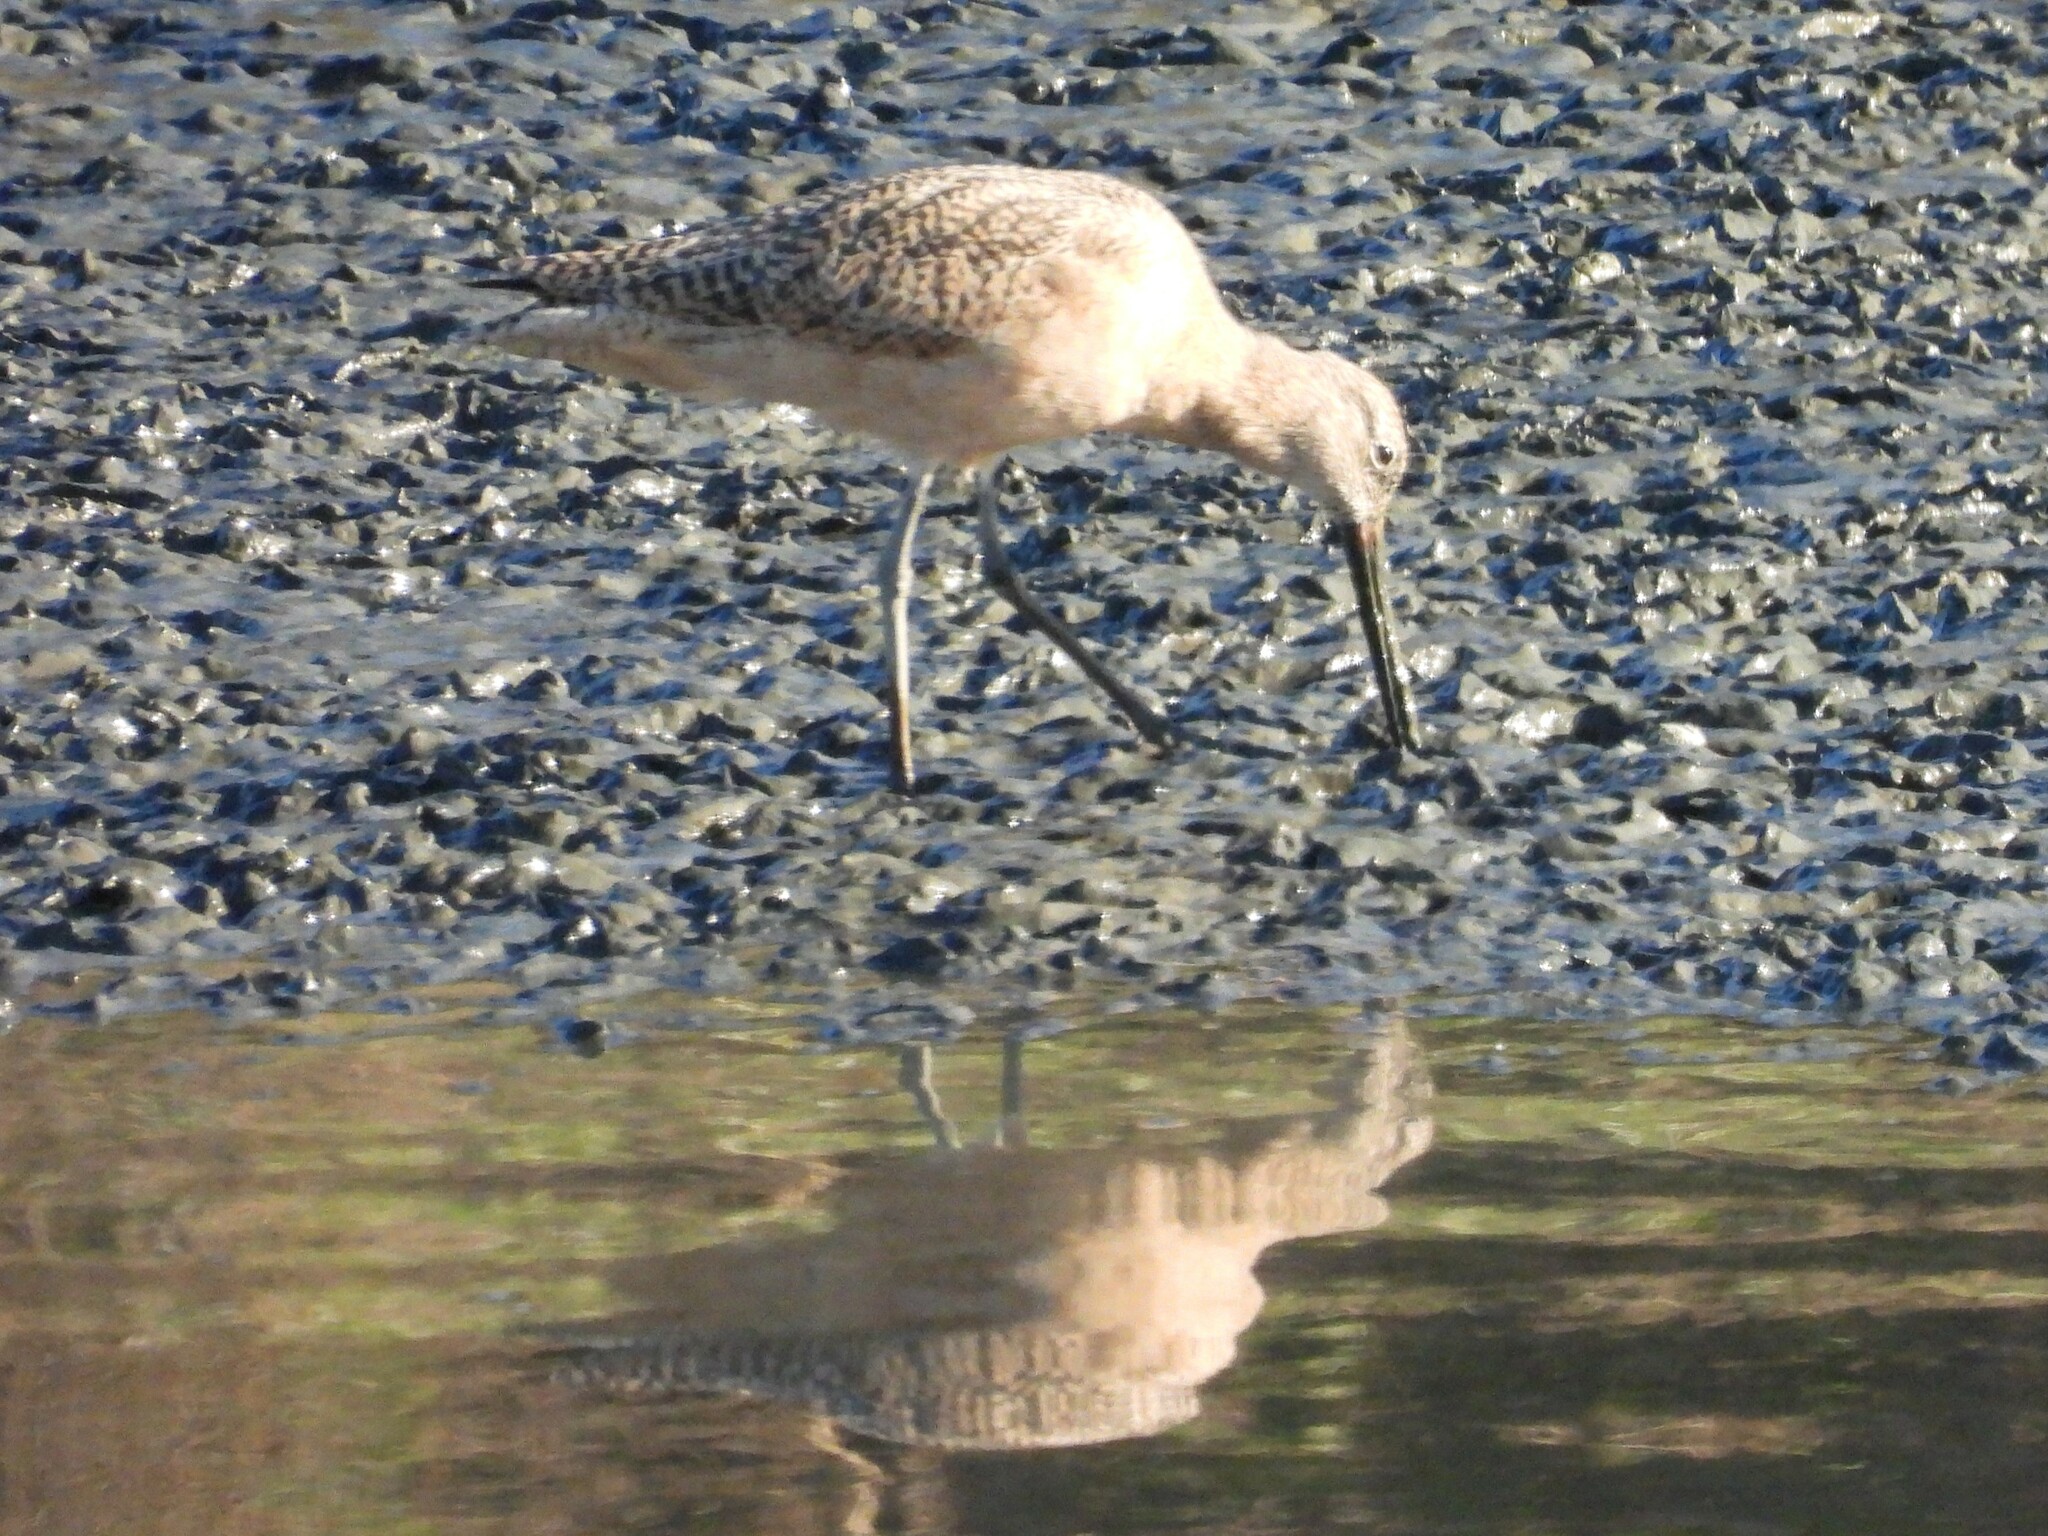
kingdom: Animalia
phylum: Chordata
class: Aves
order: Charadriiformes
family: Scolopacidae
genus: Limosa
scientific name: Limosa fedoa
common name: Marbled godwit
